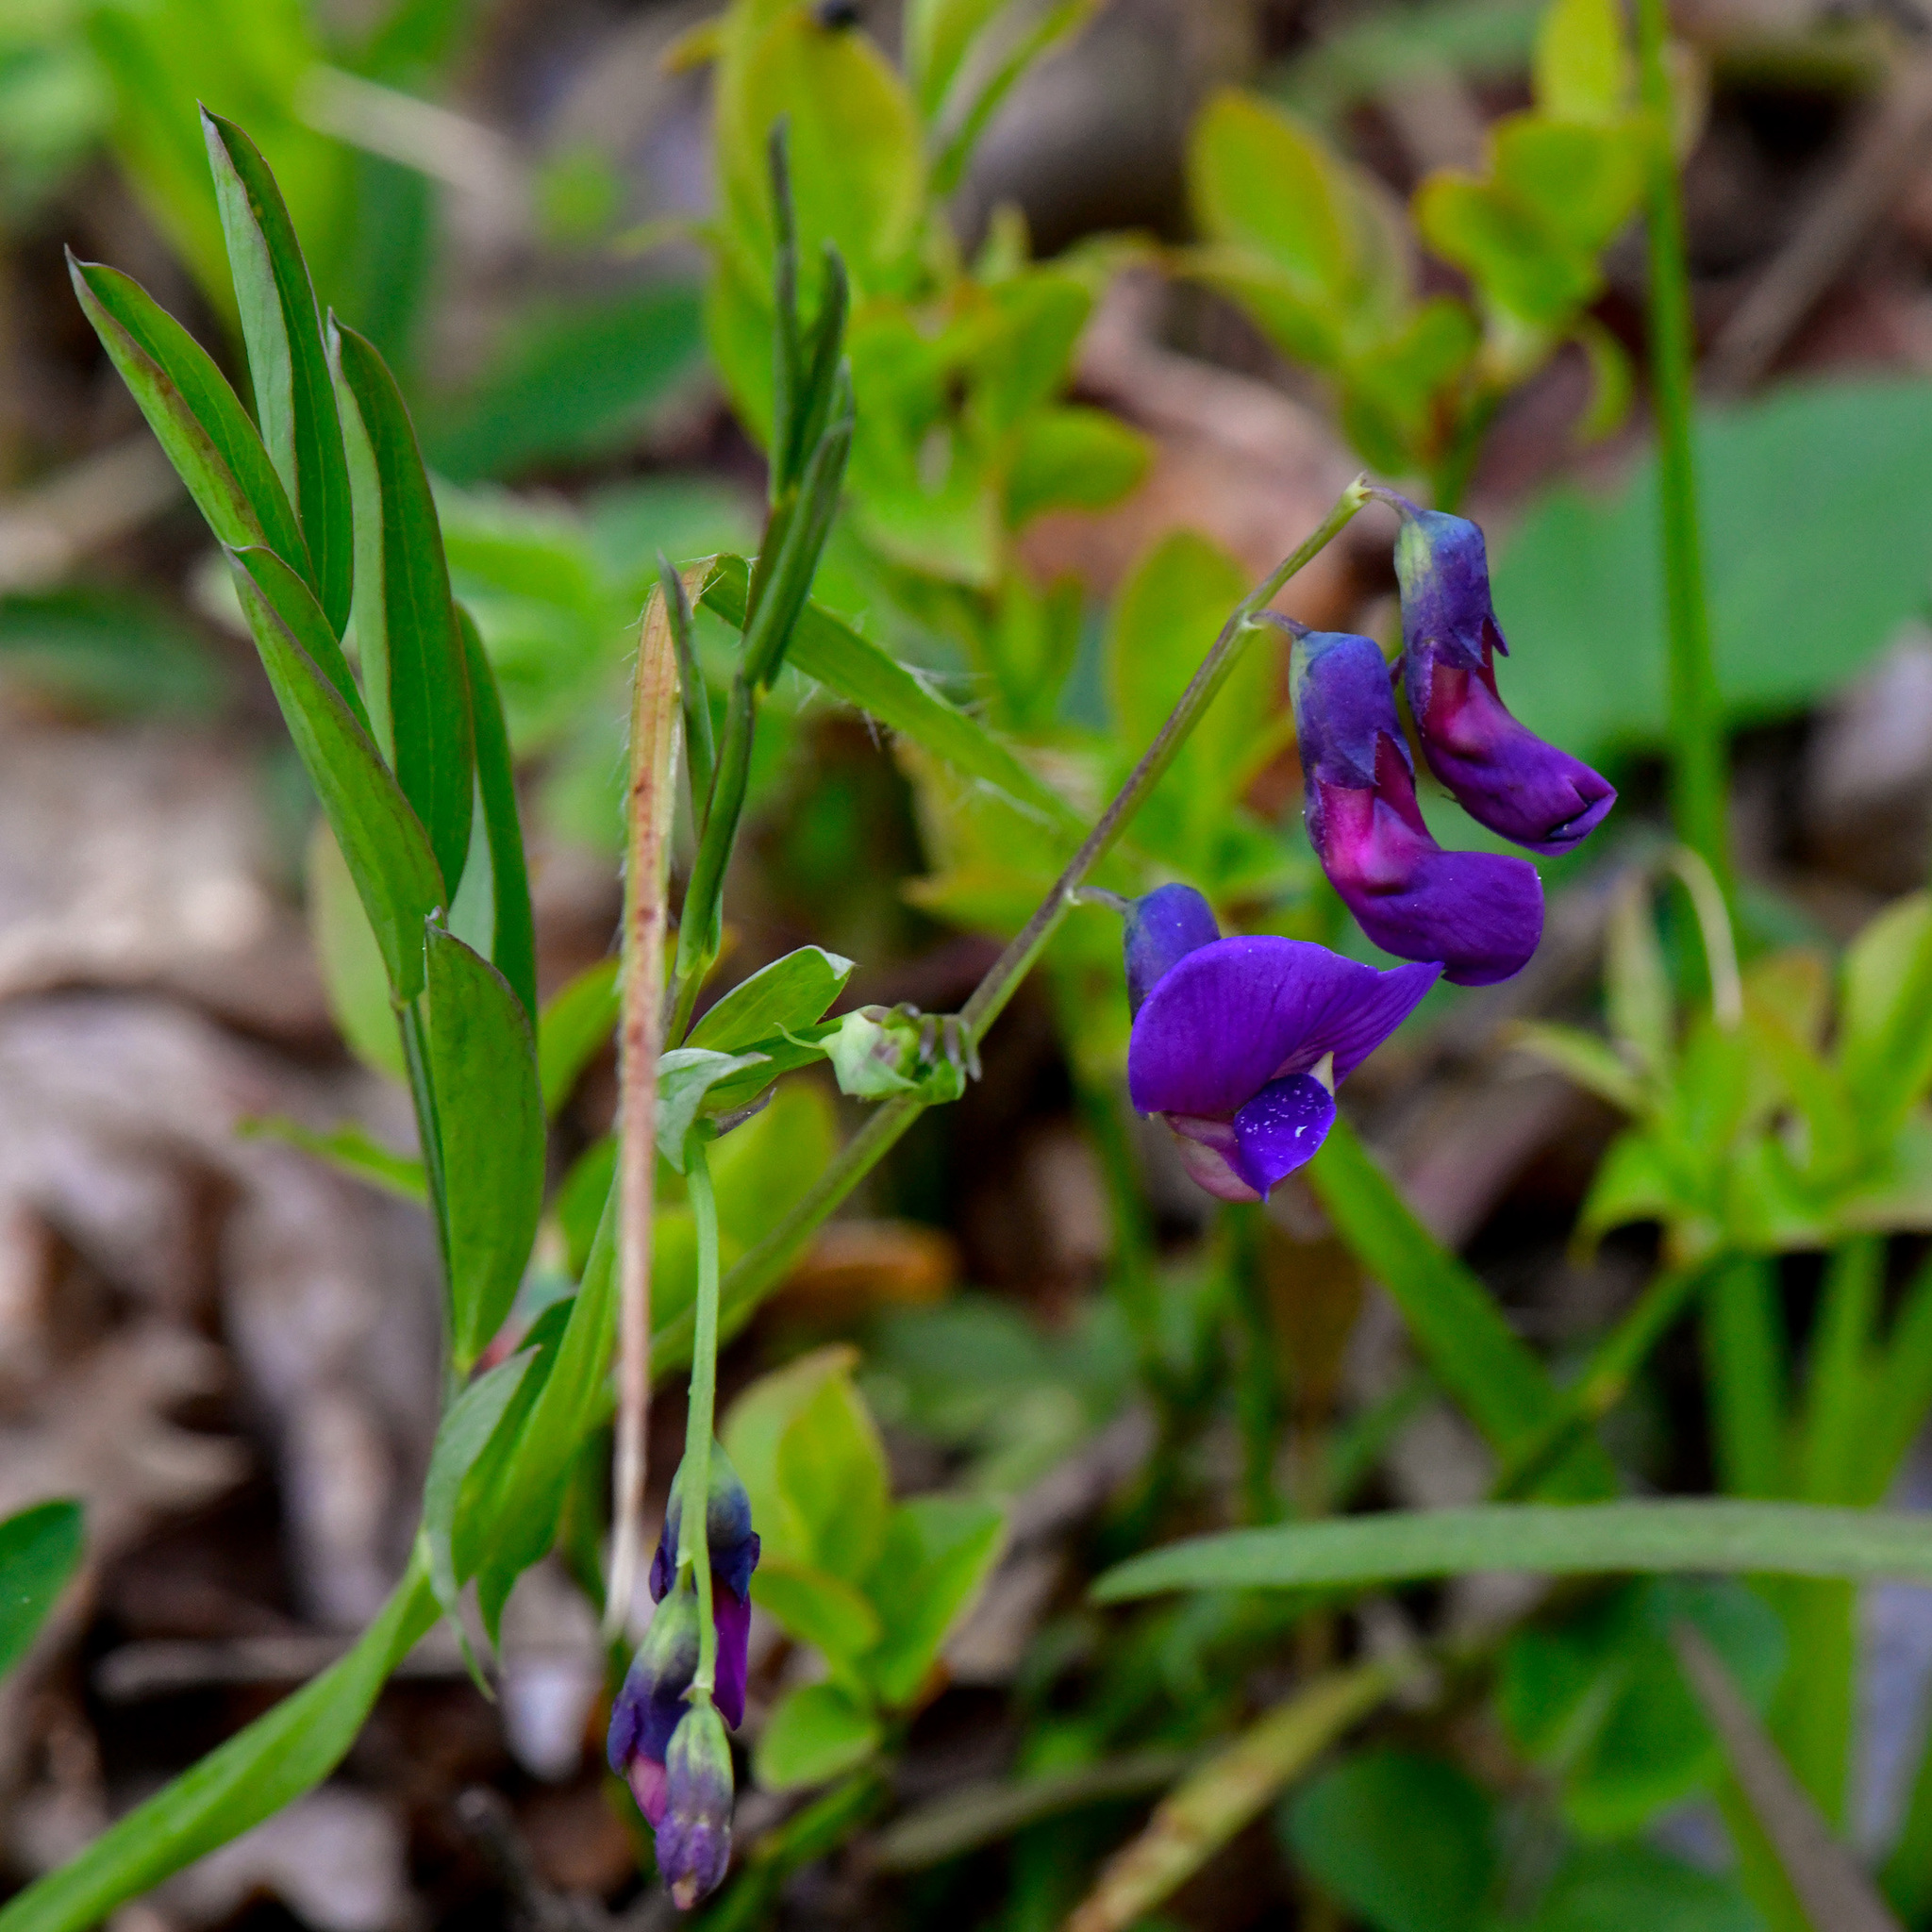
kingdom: Plantae
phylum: Tracheophyta
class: Magnoliopsida
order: Fabales
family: Fabaceae
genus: Lathyrus
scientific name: Lathyrus linifolius
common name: Bitter-vetch
